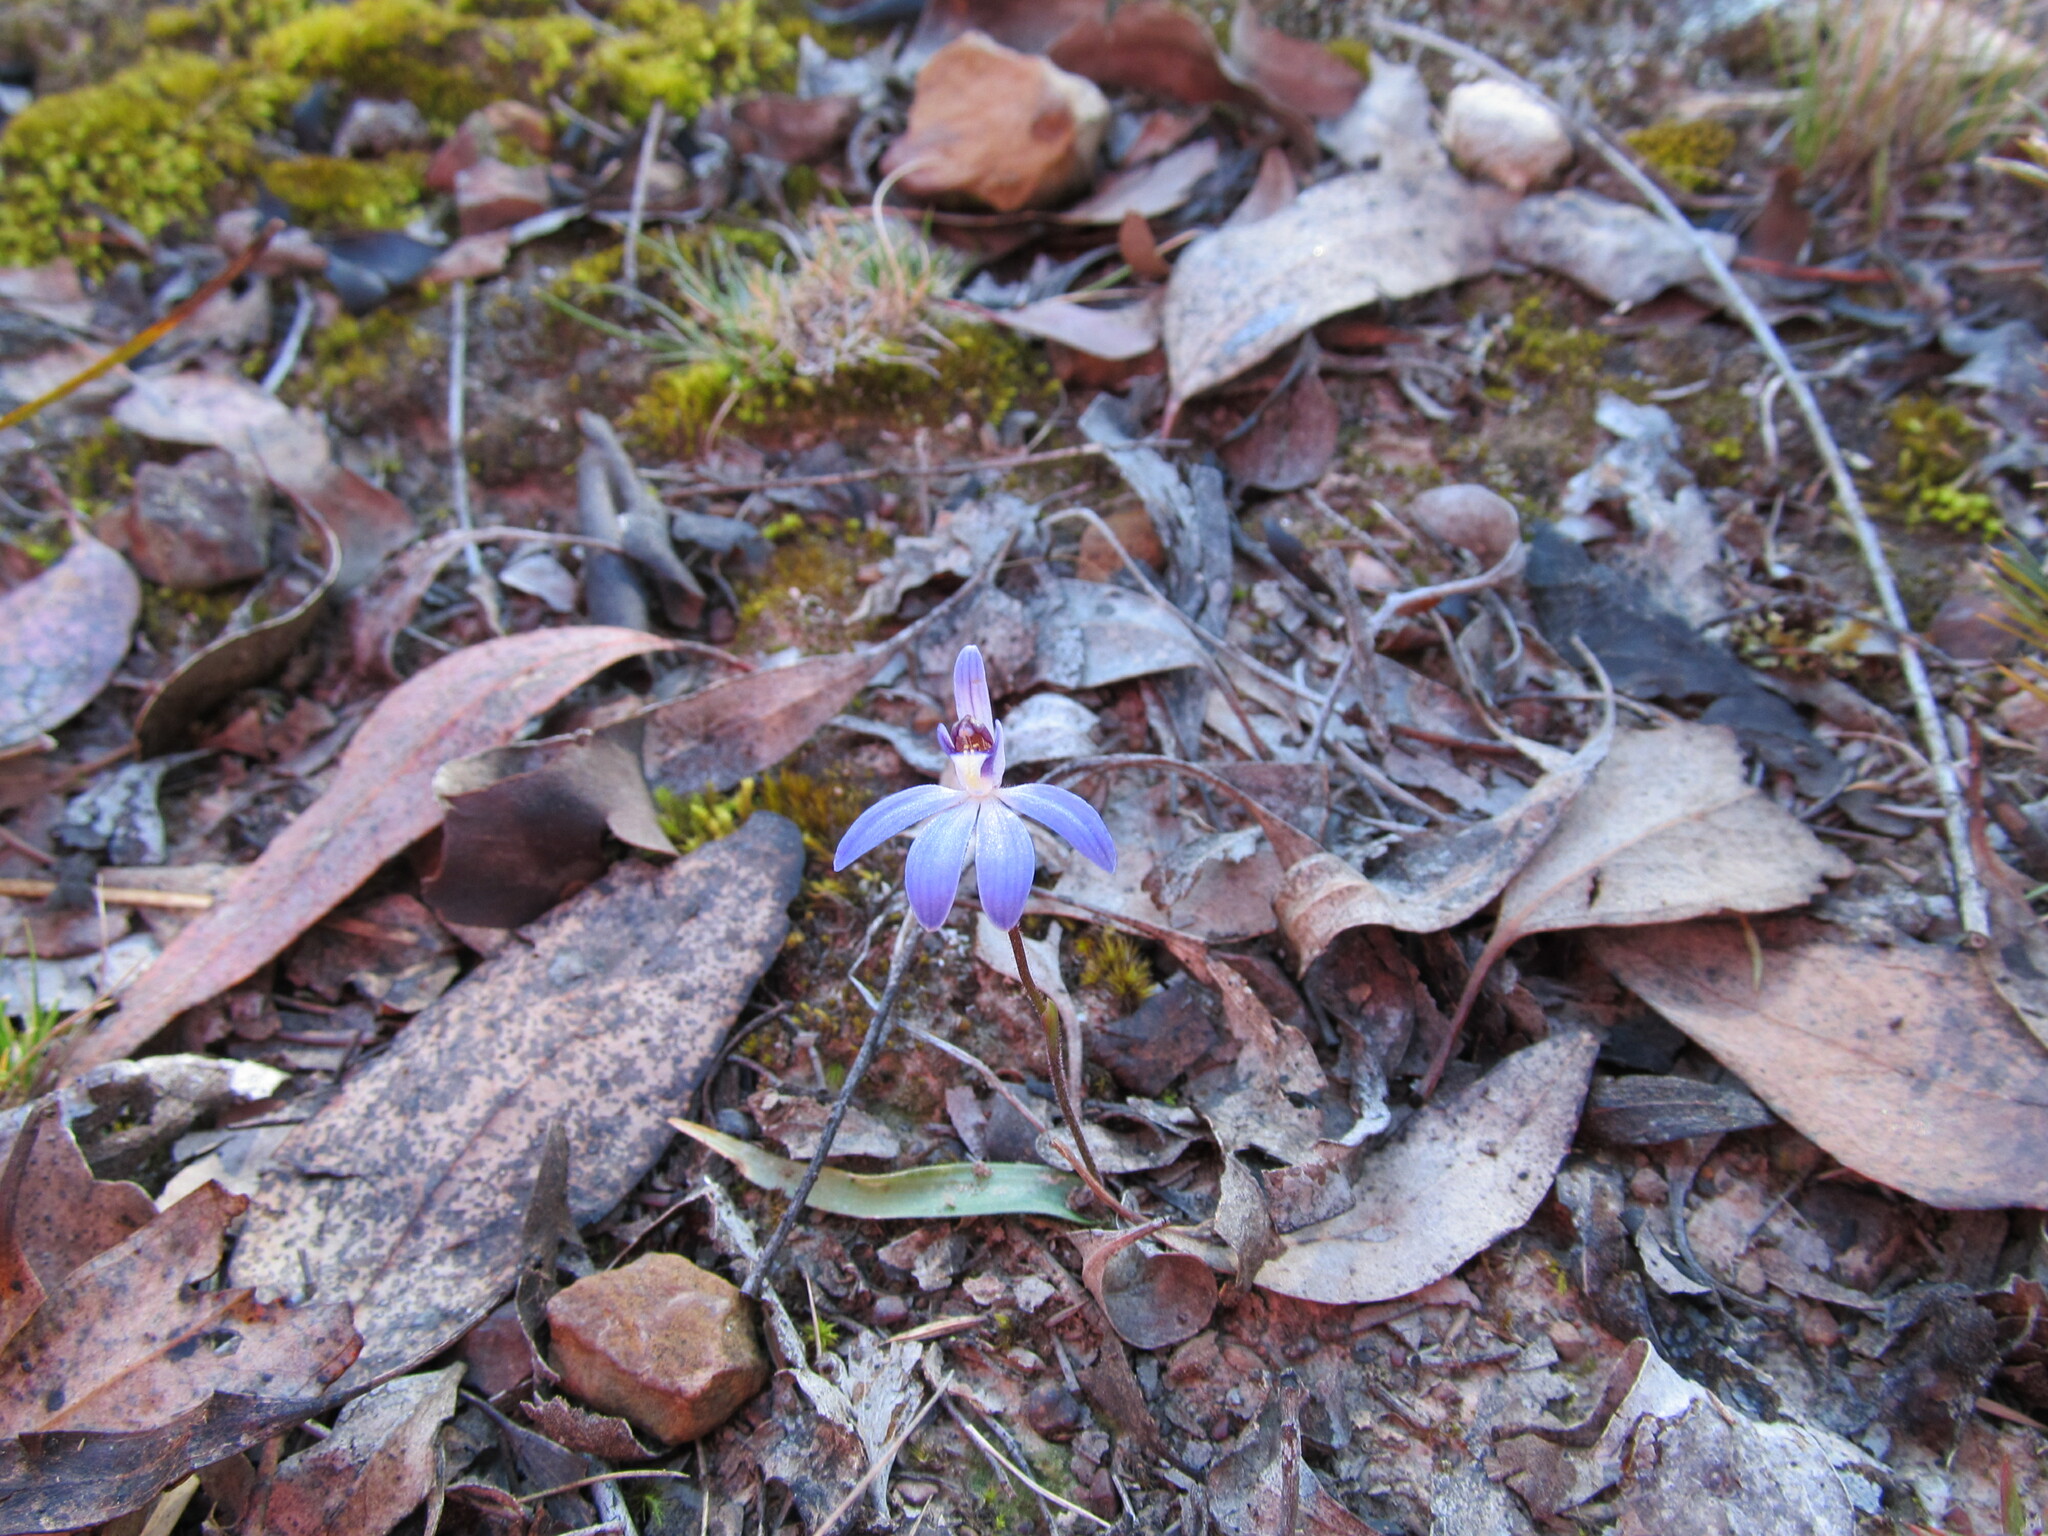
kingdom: Plantae
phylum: Tracheophyta
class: Liliopsida
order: Asparagales
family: Orchidaceae
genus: Caladenia
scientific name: Caladenia caerulea
